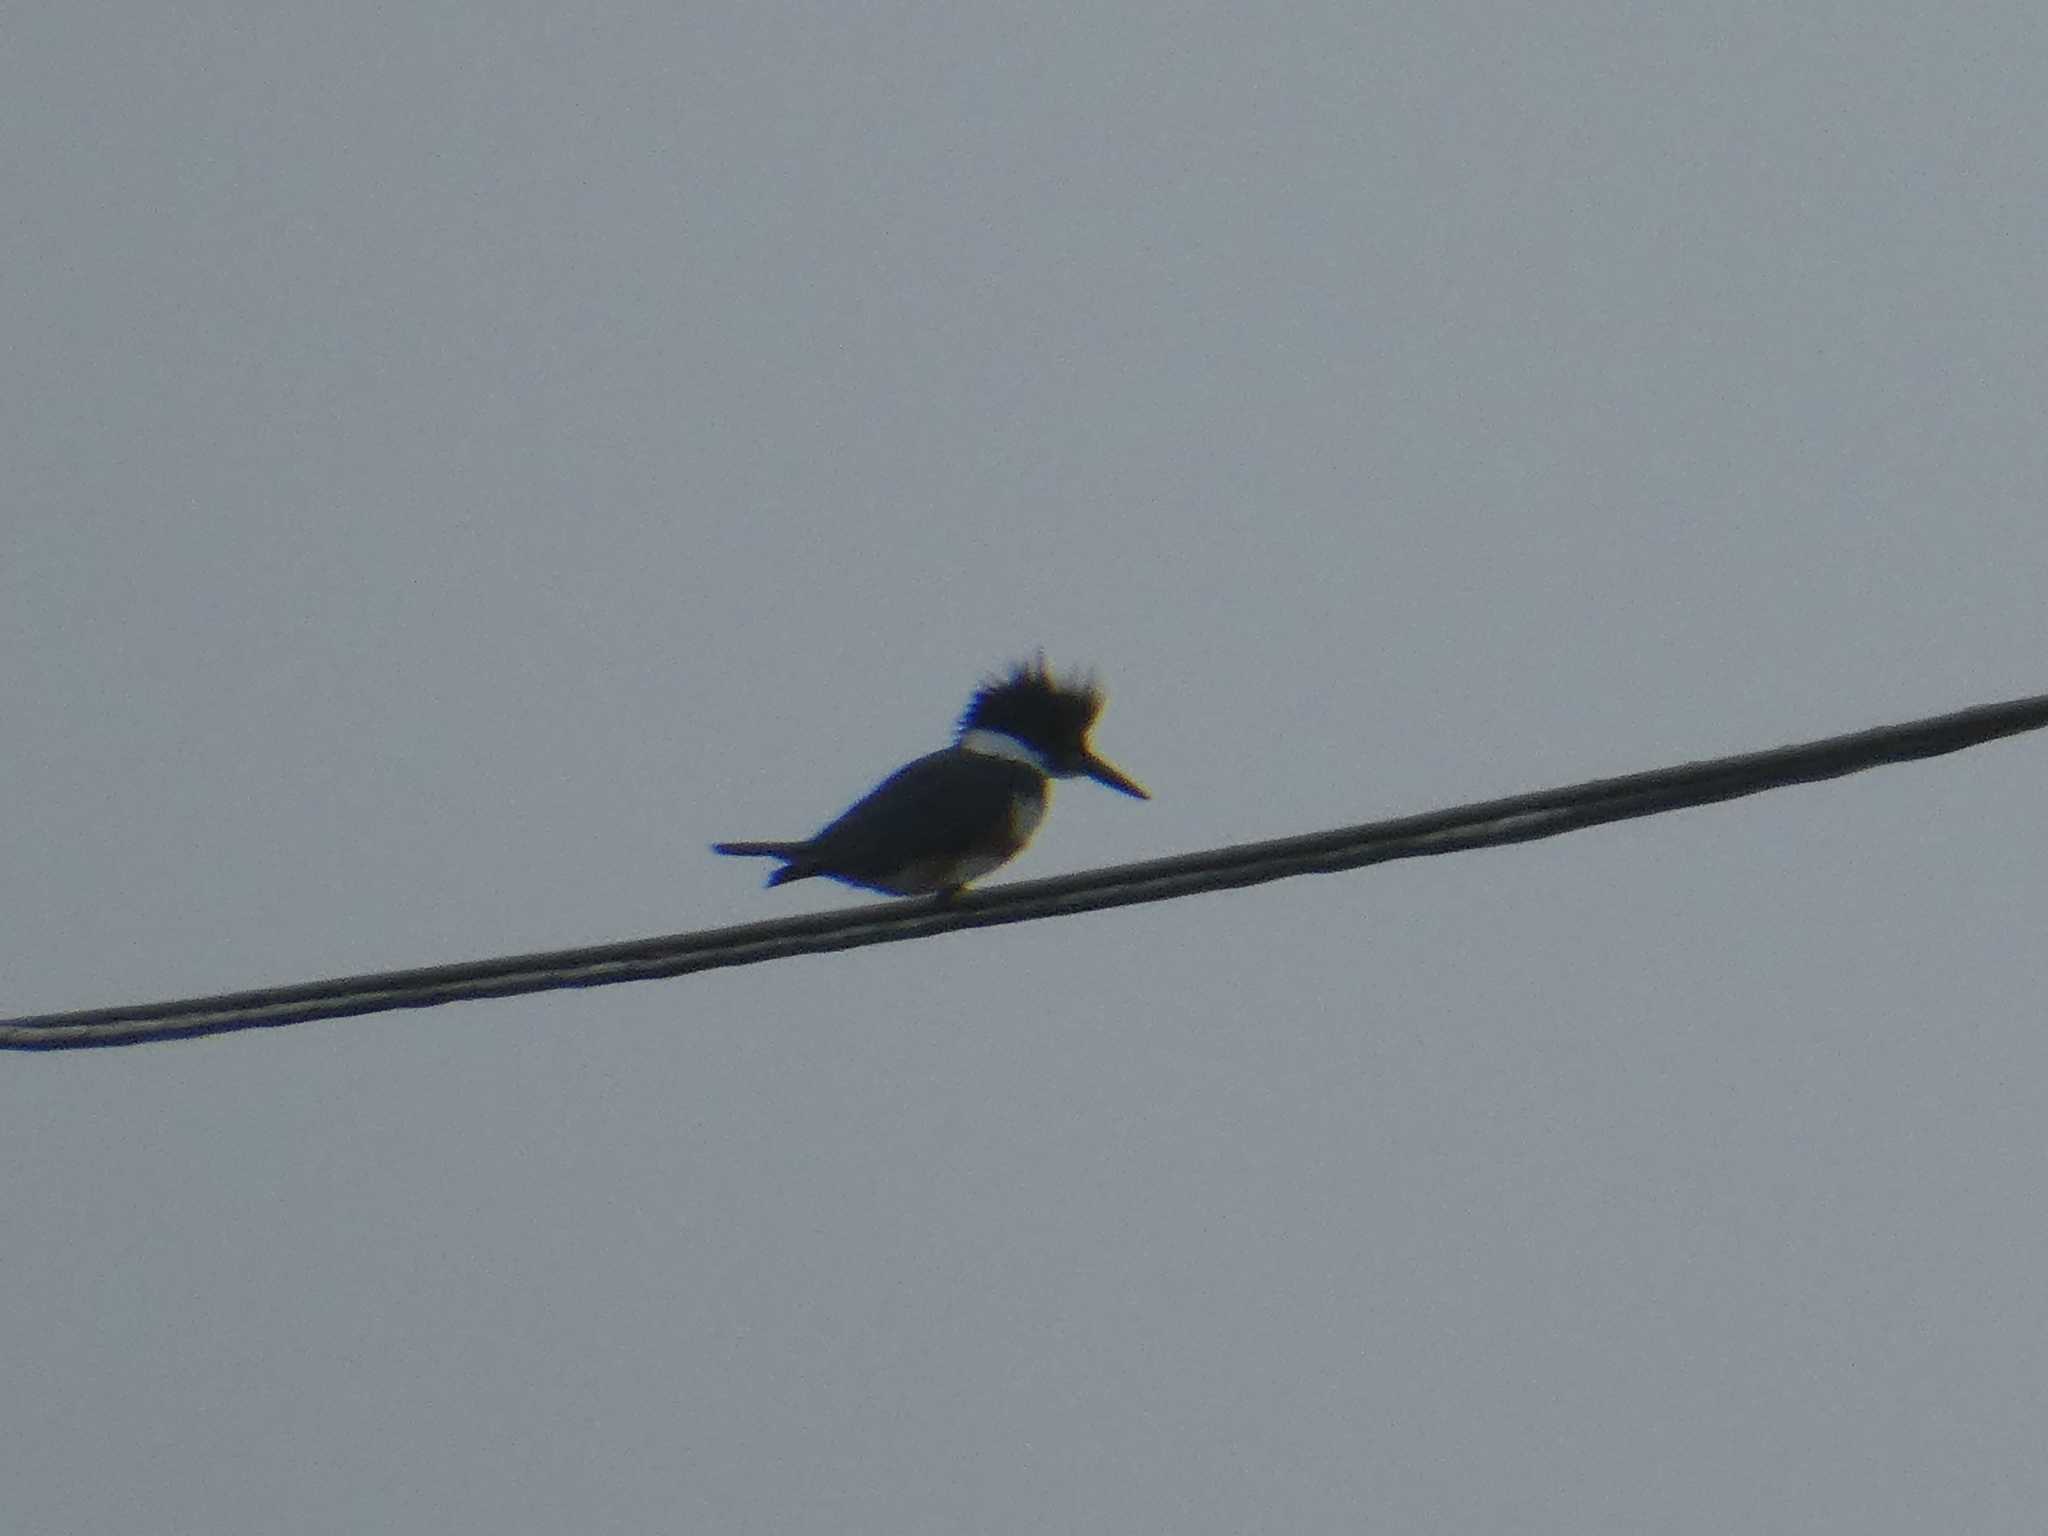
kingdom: Animalia
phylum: Chordata
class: Aves
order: Coraciiformes
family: Alcedinidae
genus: Megaceryle
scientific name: Megaceryle alcyon
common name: Belted kingfisher
